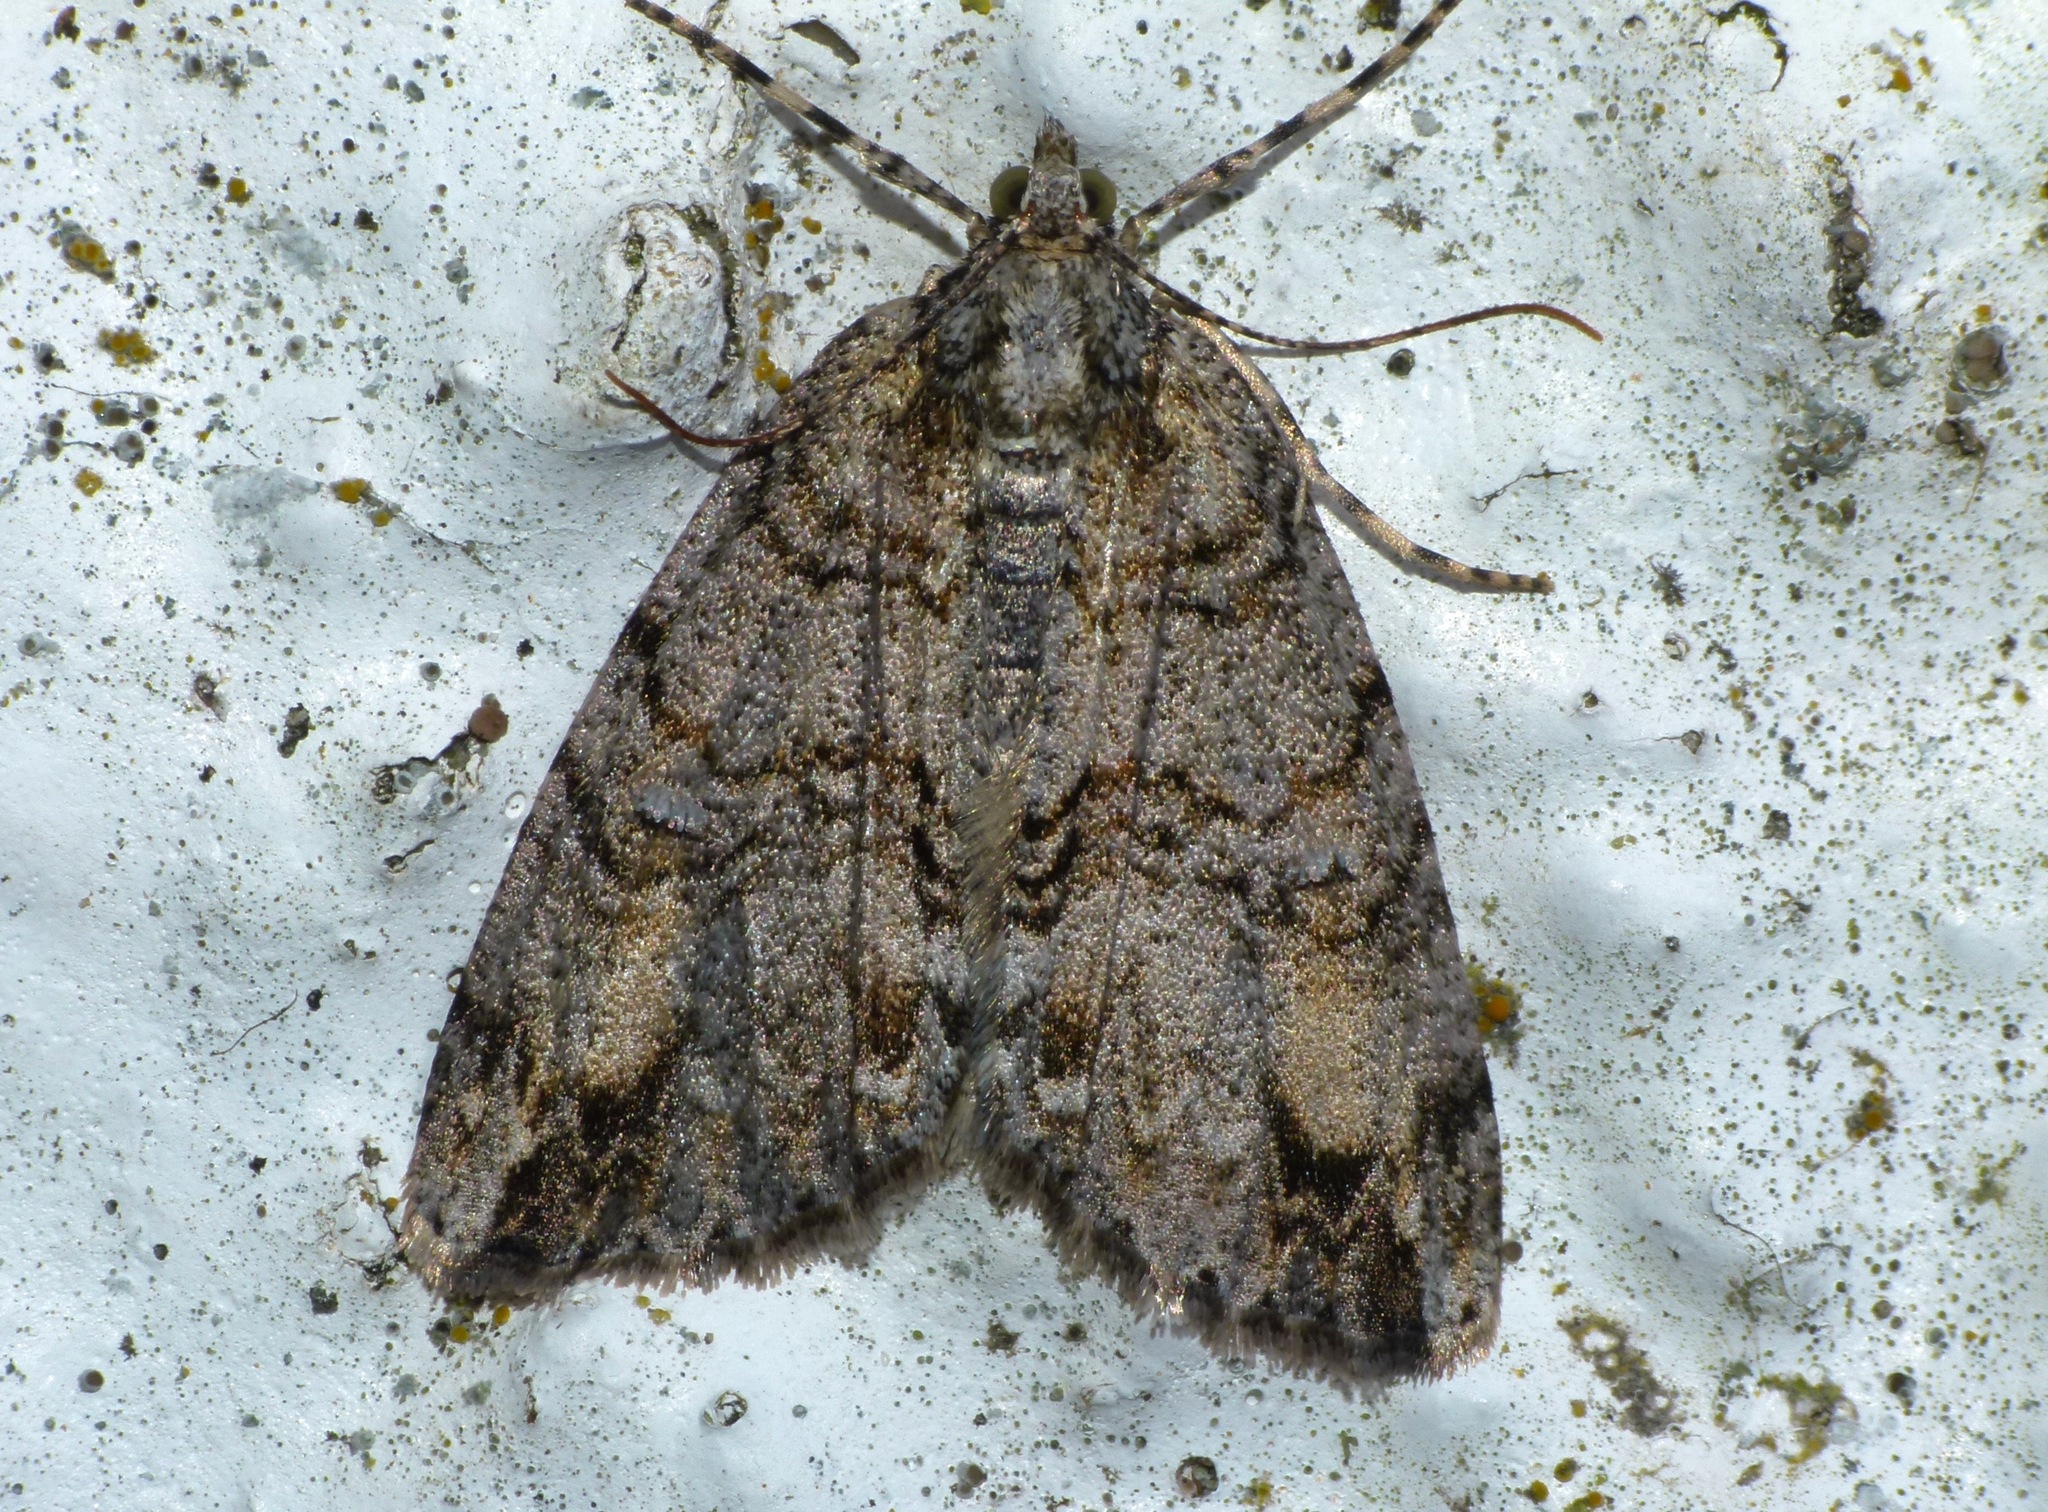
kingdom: Animalia
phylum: Arthropoda
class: Insecta
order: Lepidoptera
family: Geometridae
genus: Pseudocoremia
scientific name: Pseudocoremia suavis
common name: Common forest looper
